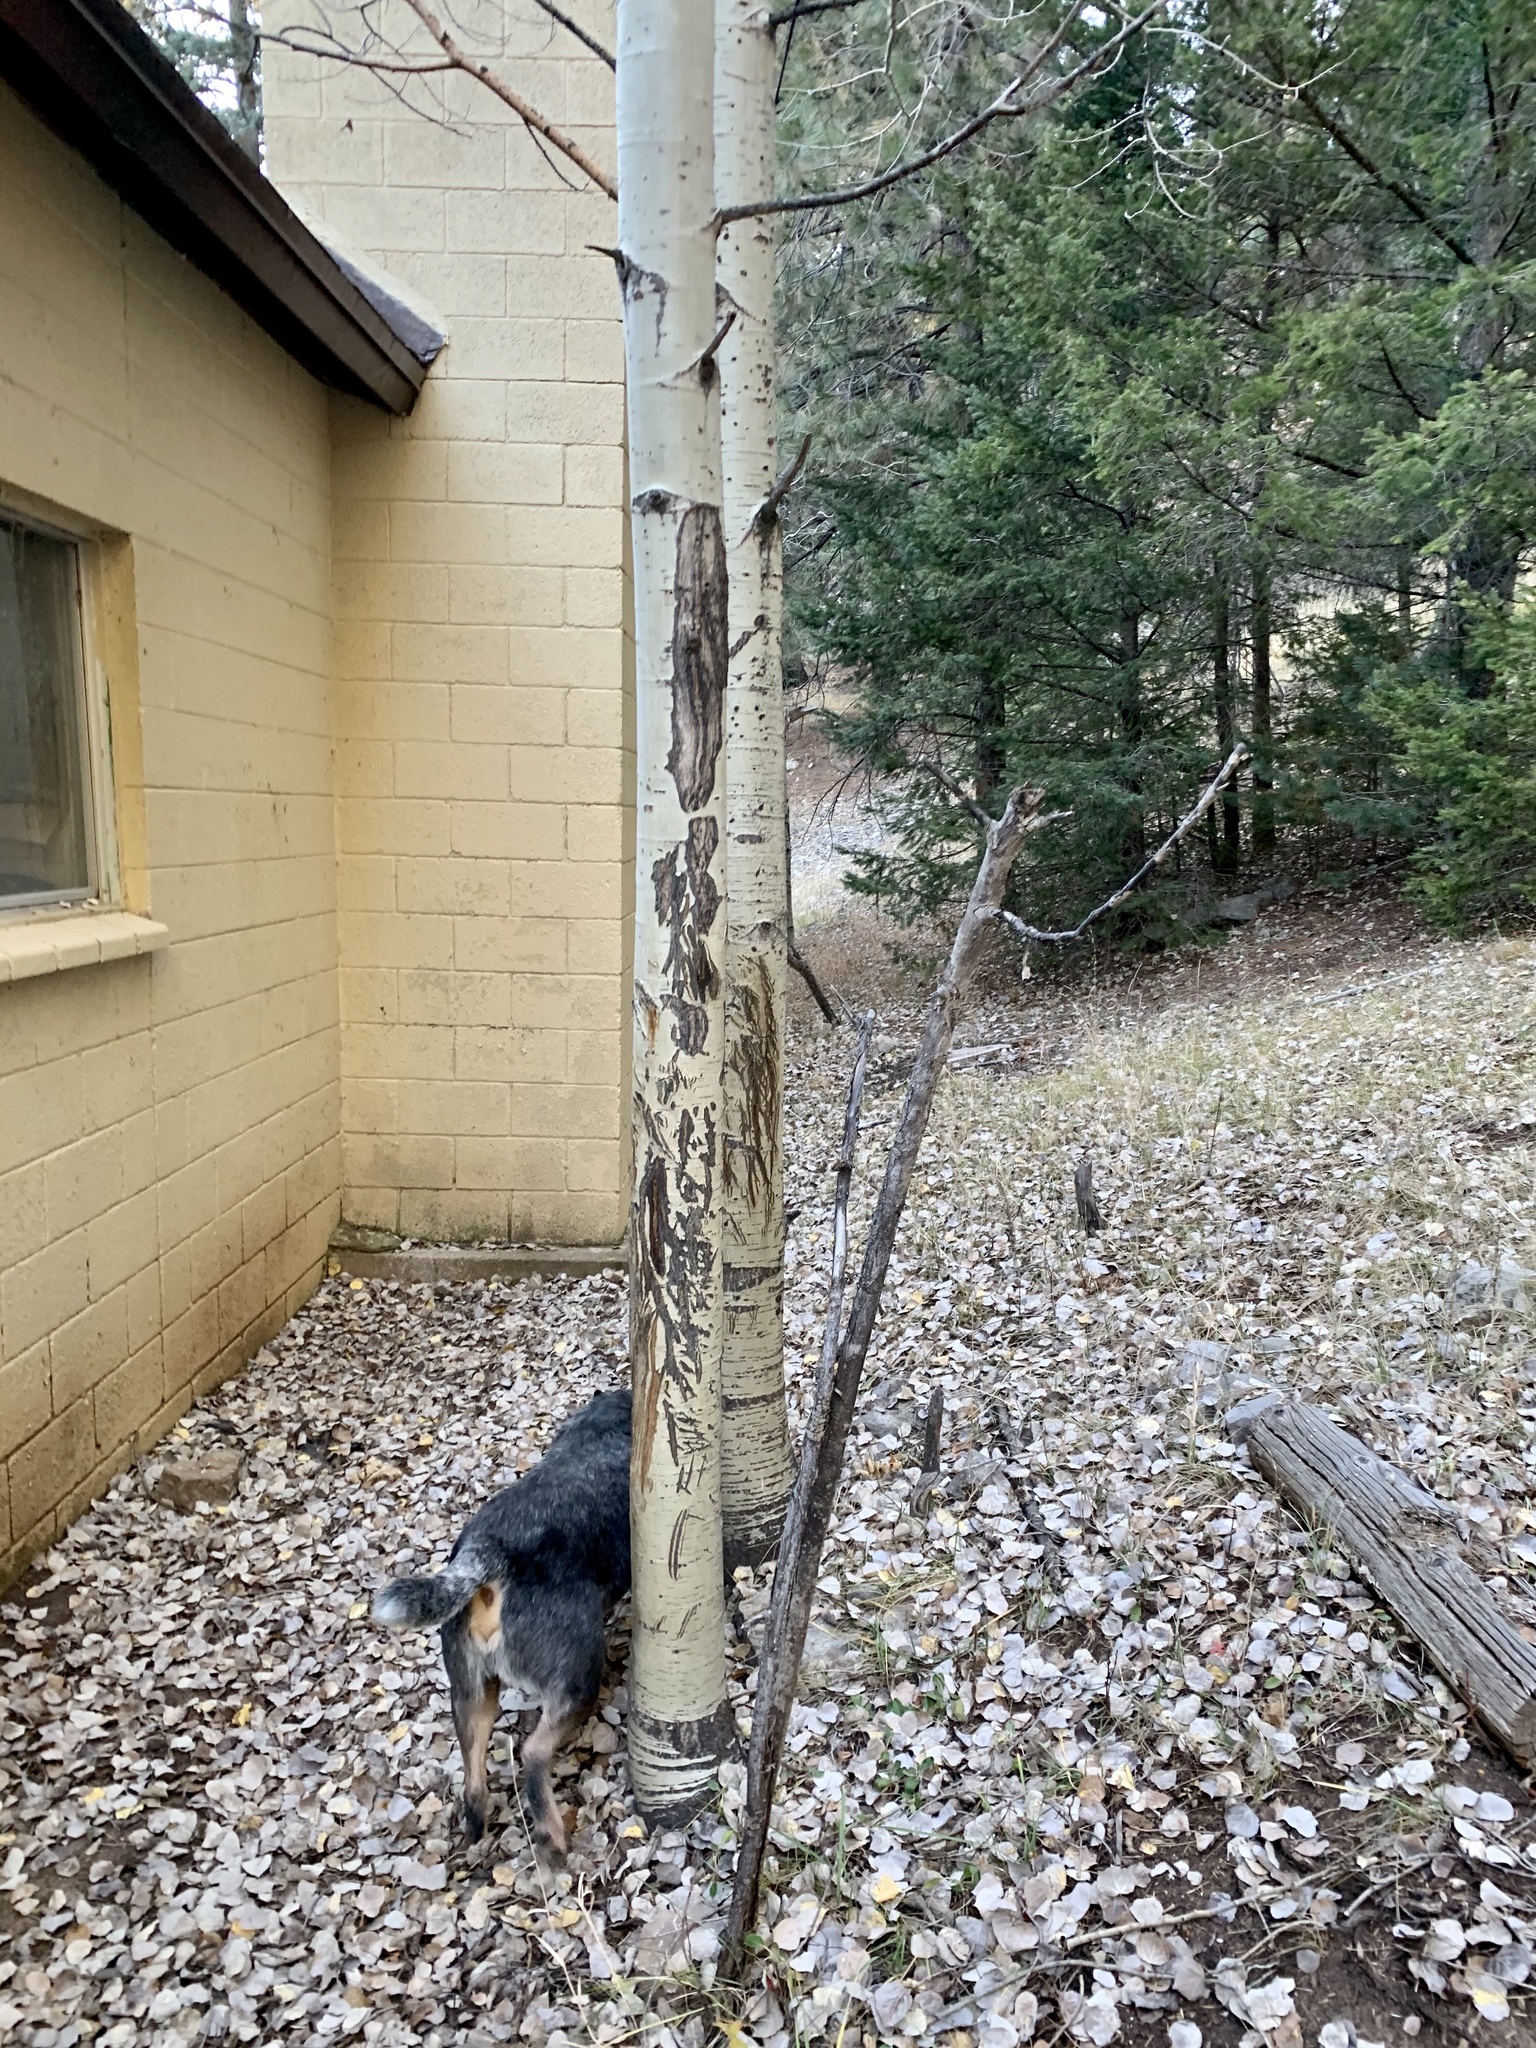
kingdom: Plantae
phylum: Tracheophyta
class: Magnoliopsida
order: Malpighiales
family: Salicaceae
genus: Populus
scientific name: Populus tremuloides
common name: Quaking aspen
